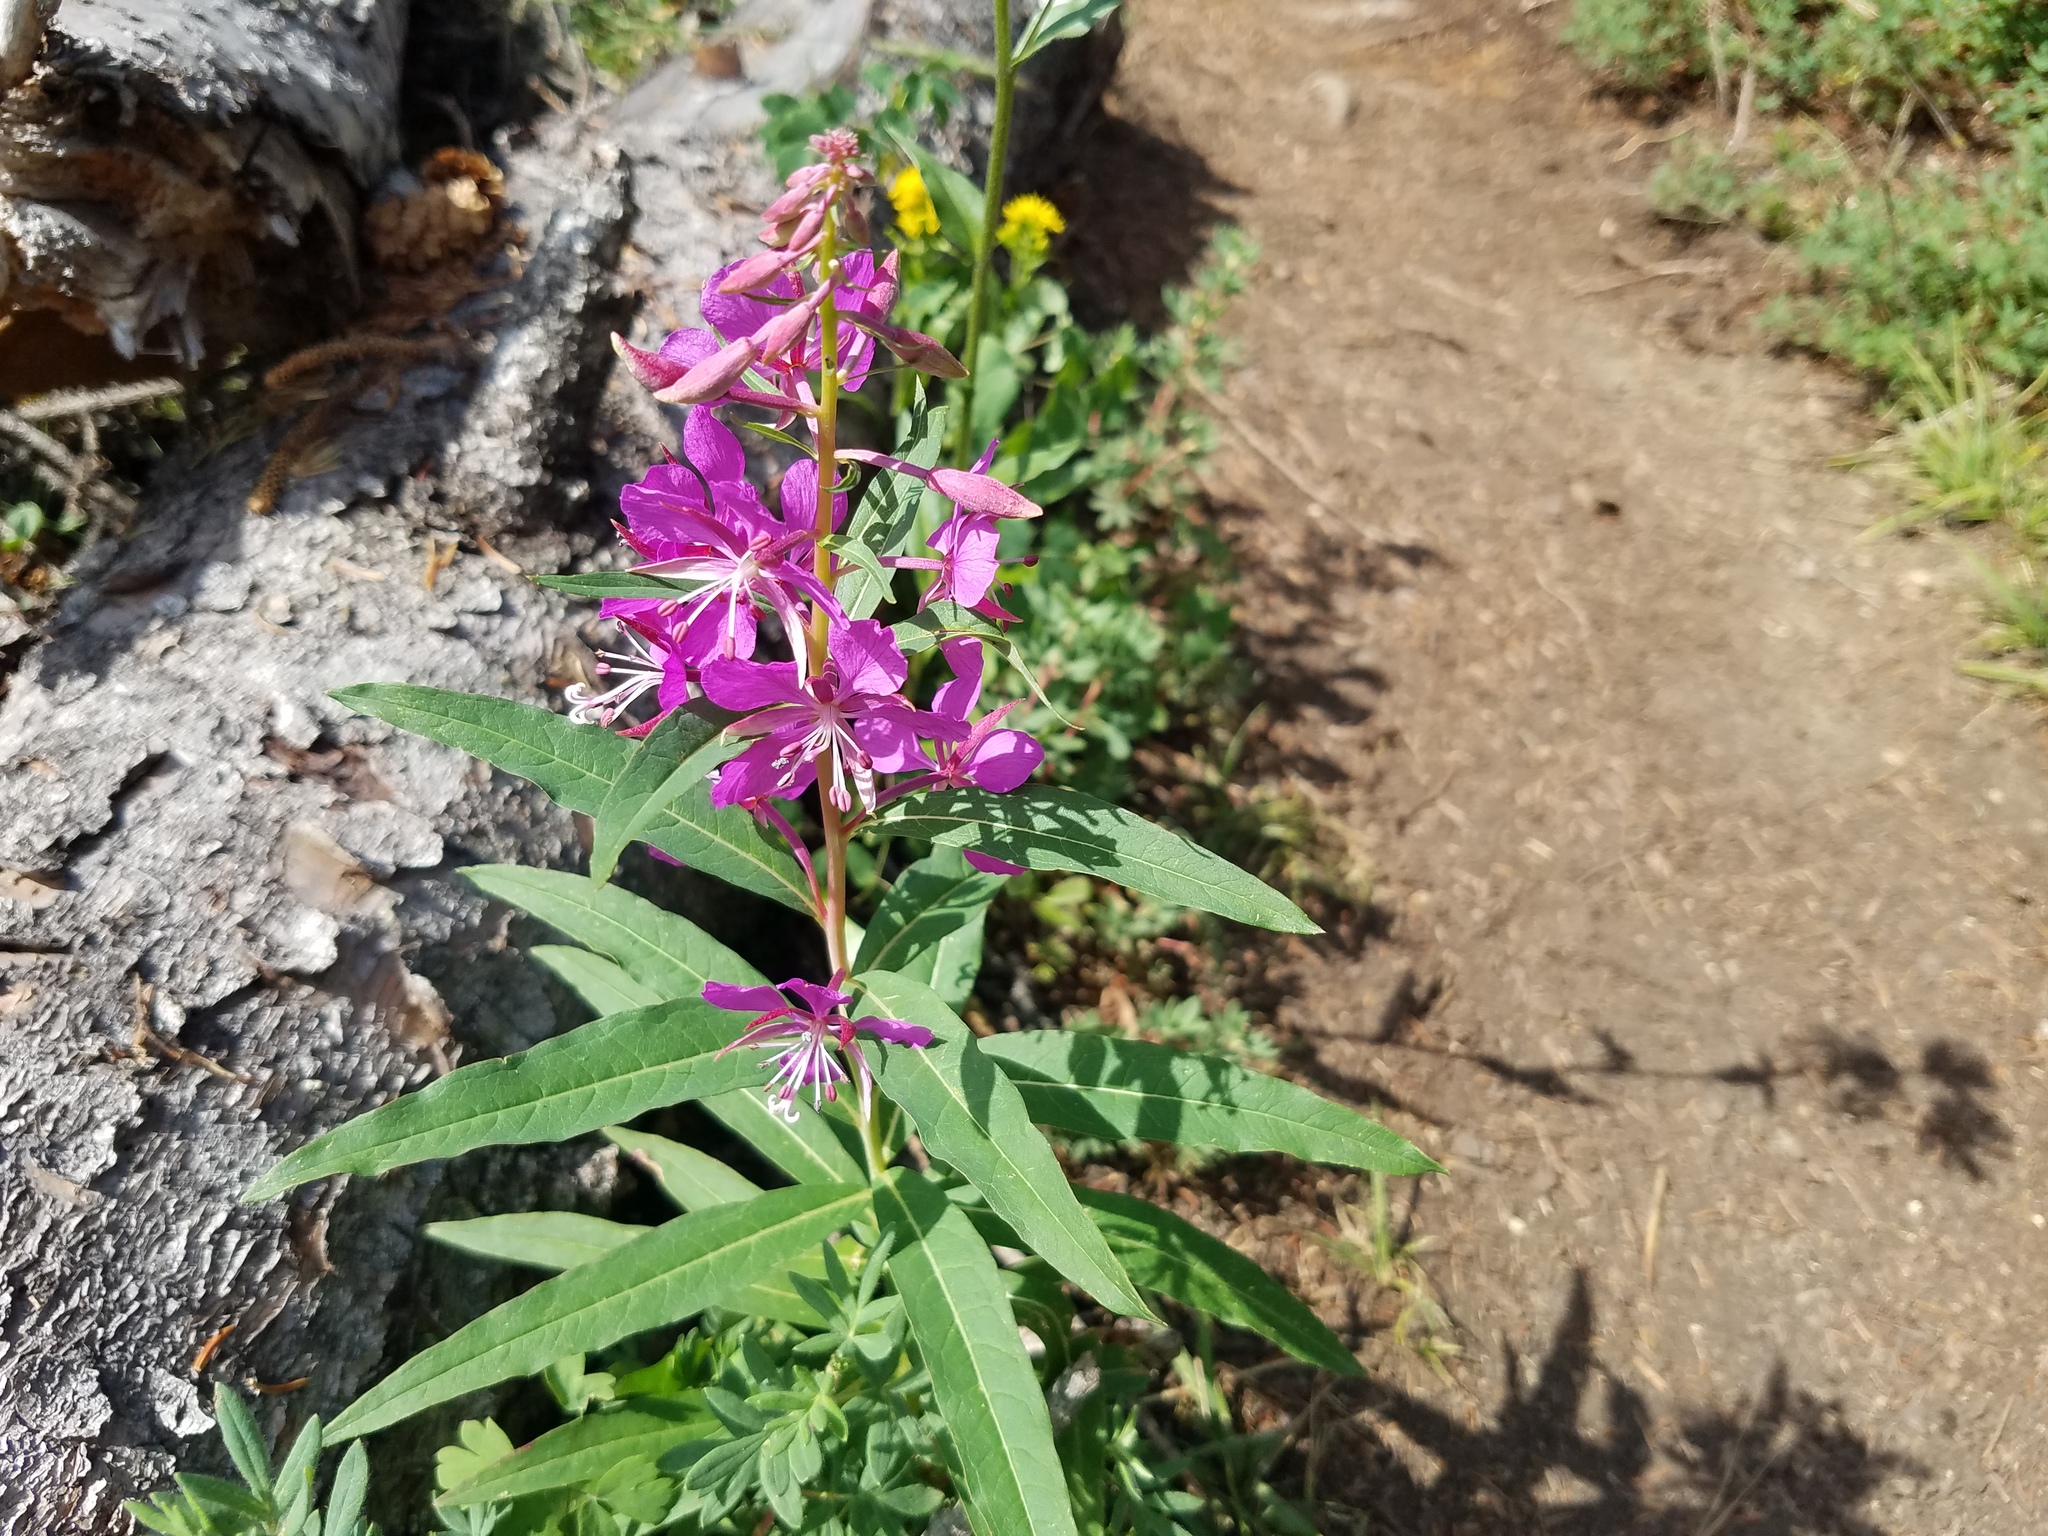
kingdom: Plantae
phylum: Tracheophyta
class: Magnoliopsida
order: Myrtales
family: Onagraceae
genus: Chamaenerion
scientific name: Chamaenerion angustifolium
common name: Fireweed
